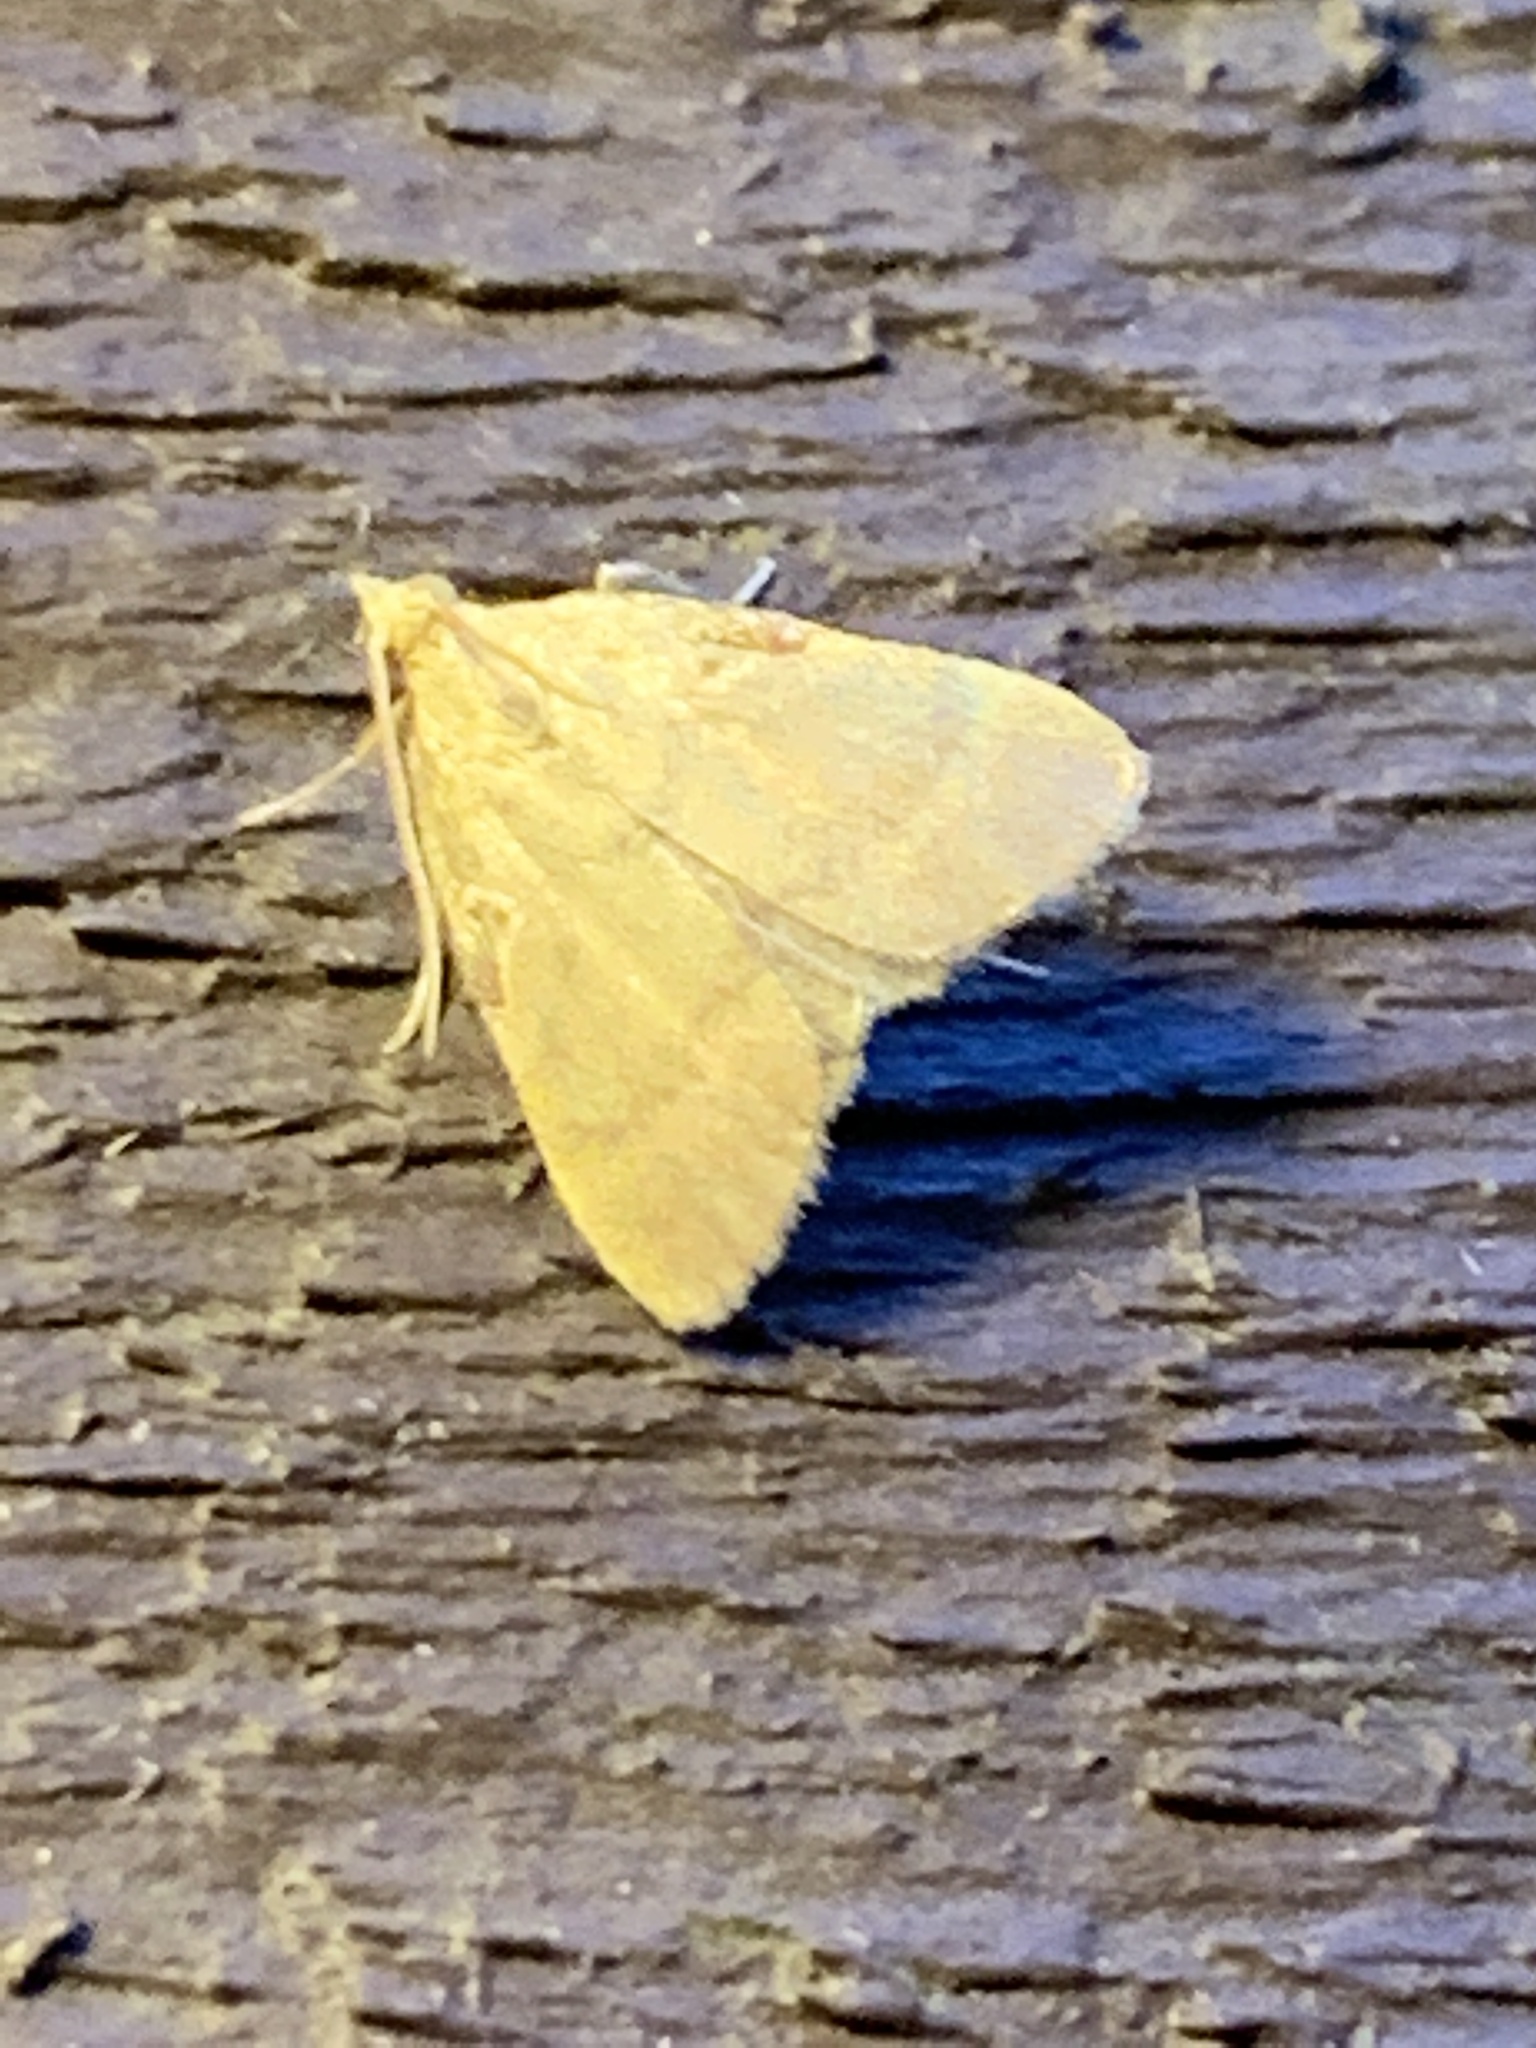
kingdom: Animalia
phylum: Arthropoda
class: Insecta
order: Lepidoptera
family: Pyralidae
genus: Condylolomia
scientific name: Condylolomia participialis
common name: Drab condylolomia moth
